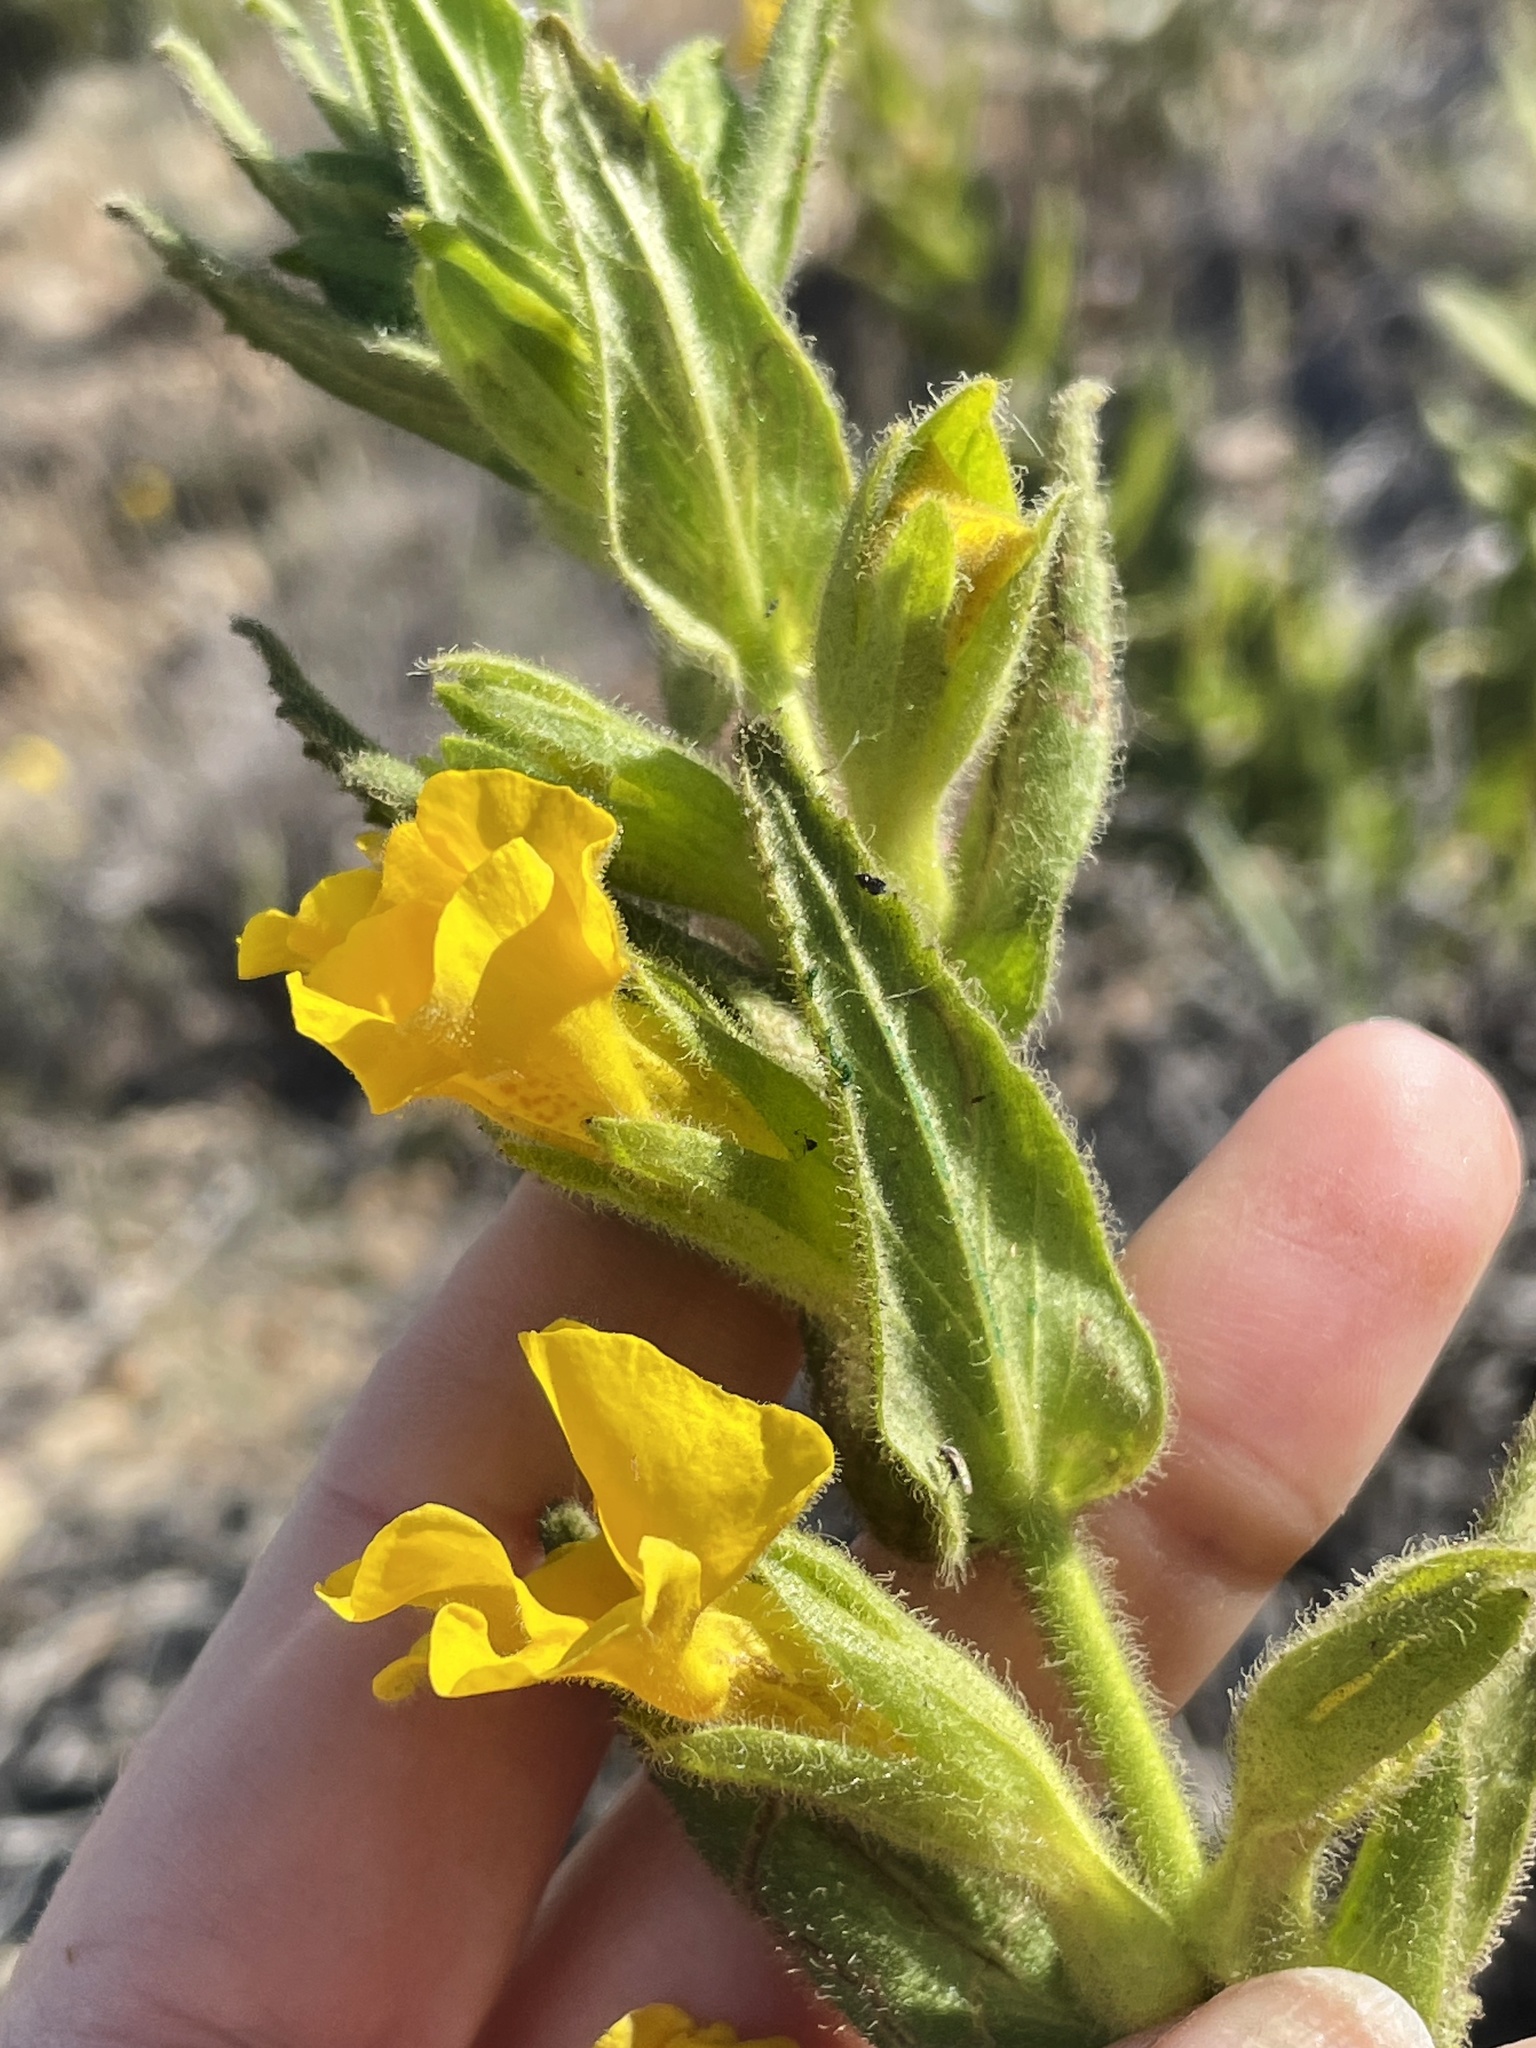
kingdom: Plantae
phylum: Tracheophyta
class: Magnoliopsida
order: Lamiales
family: Phrymaceae
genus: Diplacus
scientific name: Diplacus clevelandii
